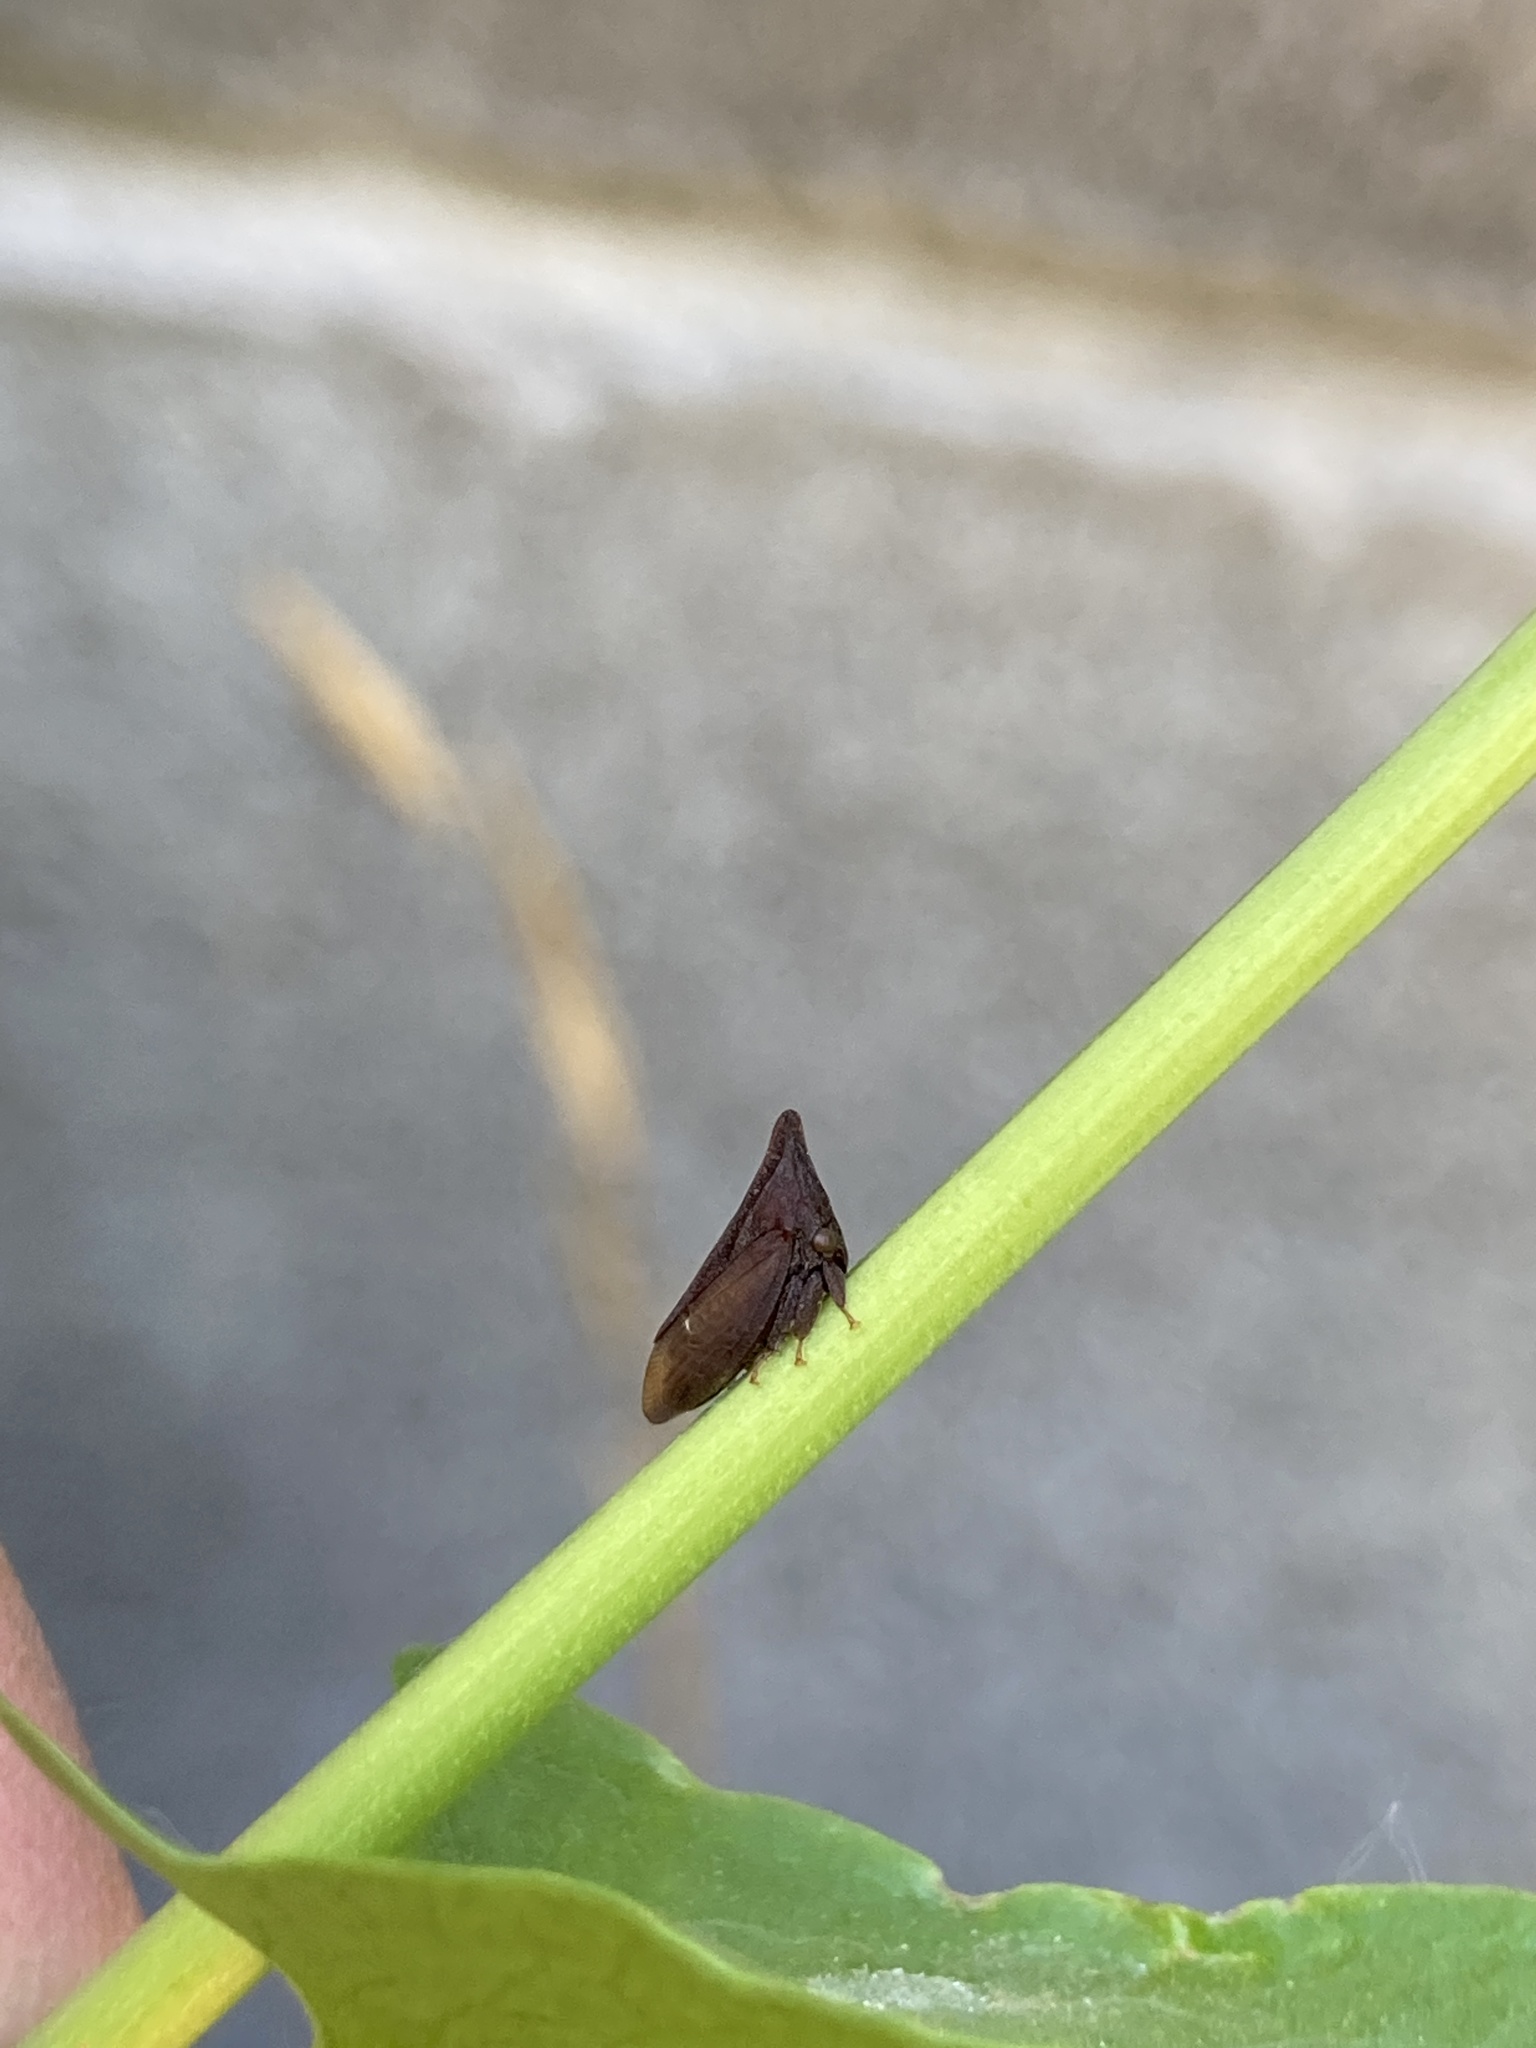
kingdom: Animalia
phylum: Arthropoda
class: Insecta
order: Hemiptera
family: Membracidae
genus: Enchenopa
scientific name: Enchenopa monoceros
